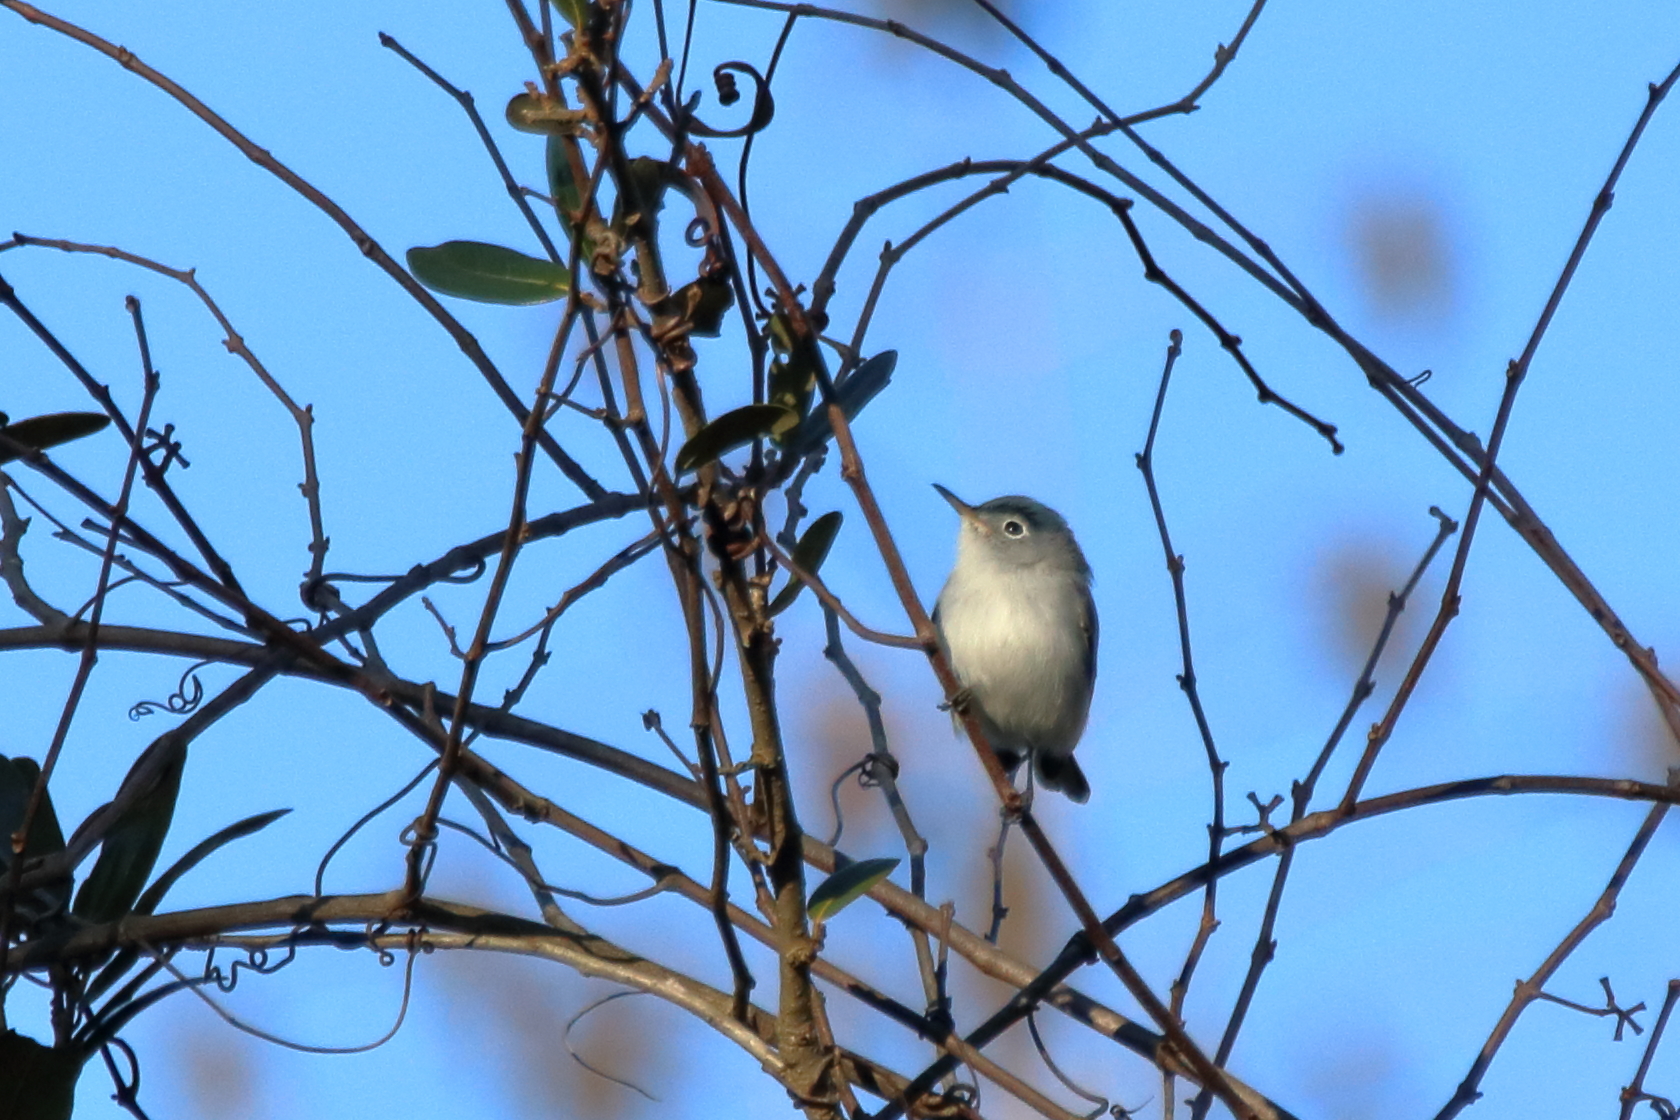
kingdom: Animalia
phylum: Chordata
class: Aves
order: Passeriformes
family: Polioptilidae
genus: Polioptila
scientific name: Polioptila caerulea
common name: Blue-gray gnatcatcher
